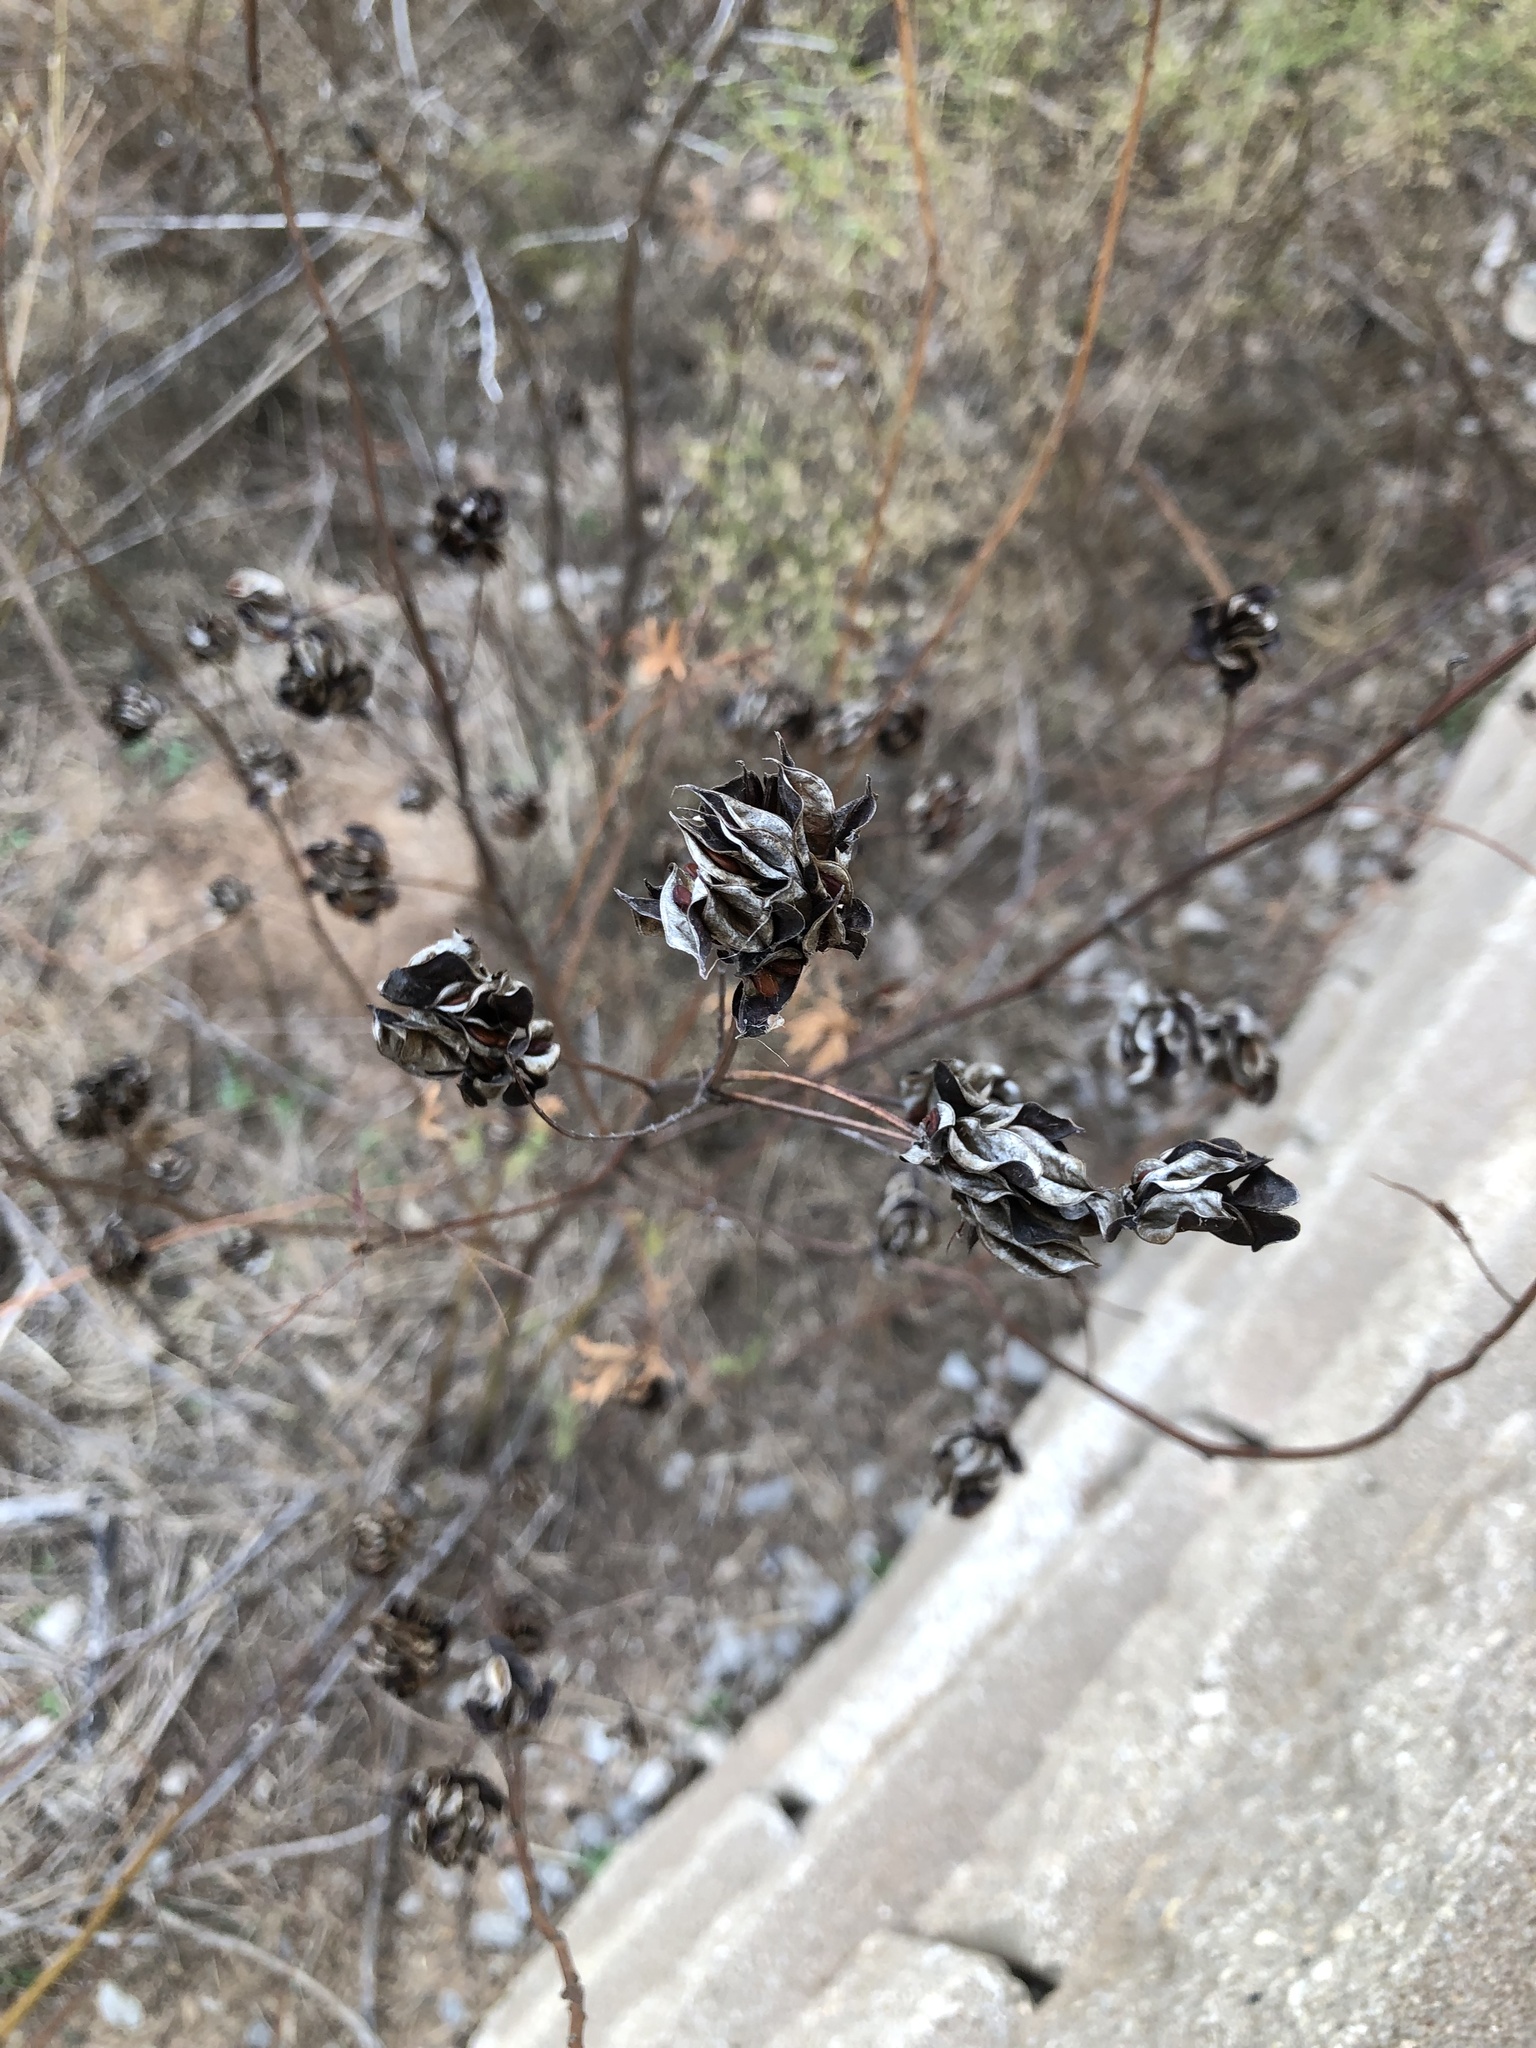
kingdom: Plantae
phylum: Tracheophyta
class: Magnoliopsida
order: Fabales
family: Fabaceae
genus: Desmanthus
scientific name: Desmanthus illinoensis
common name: Illinois bundle-flower
